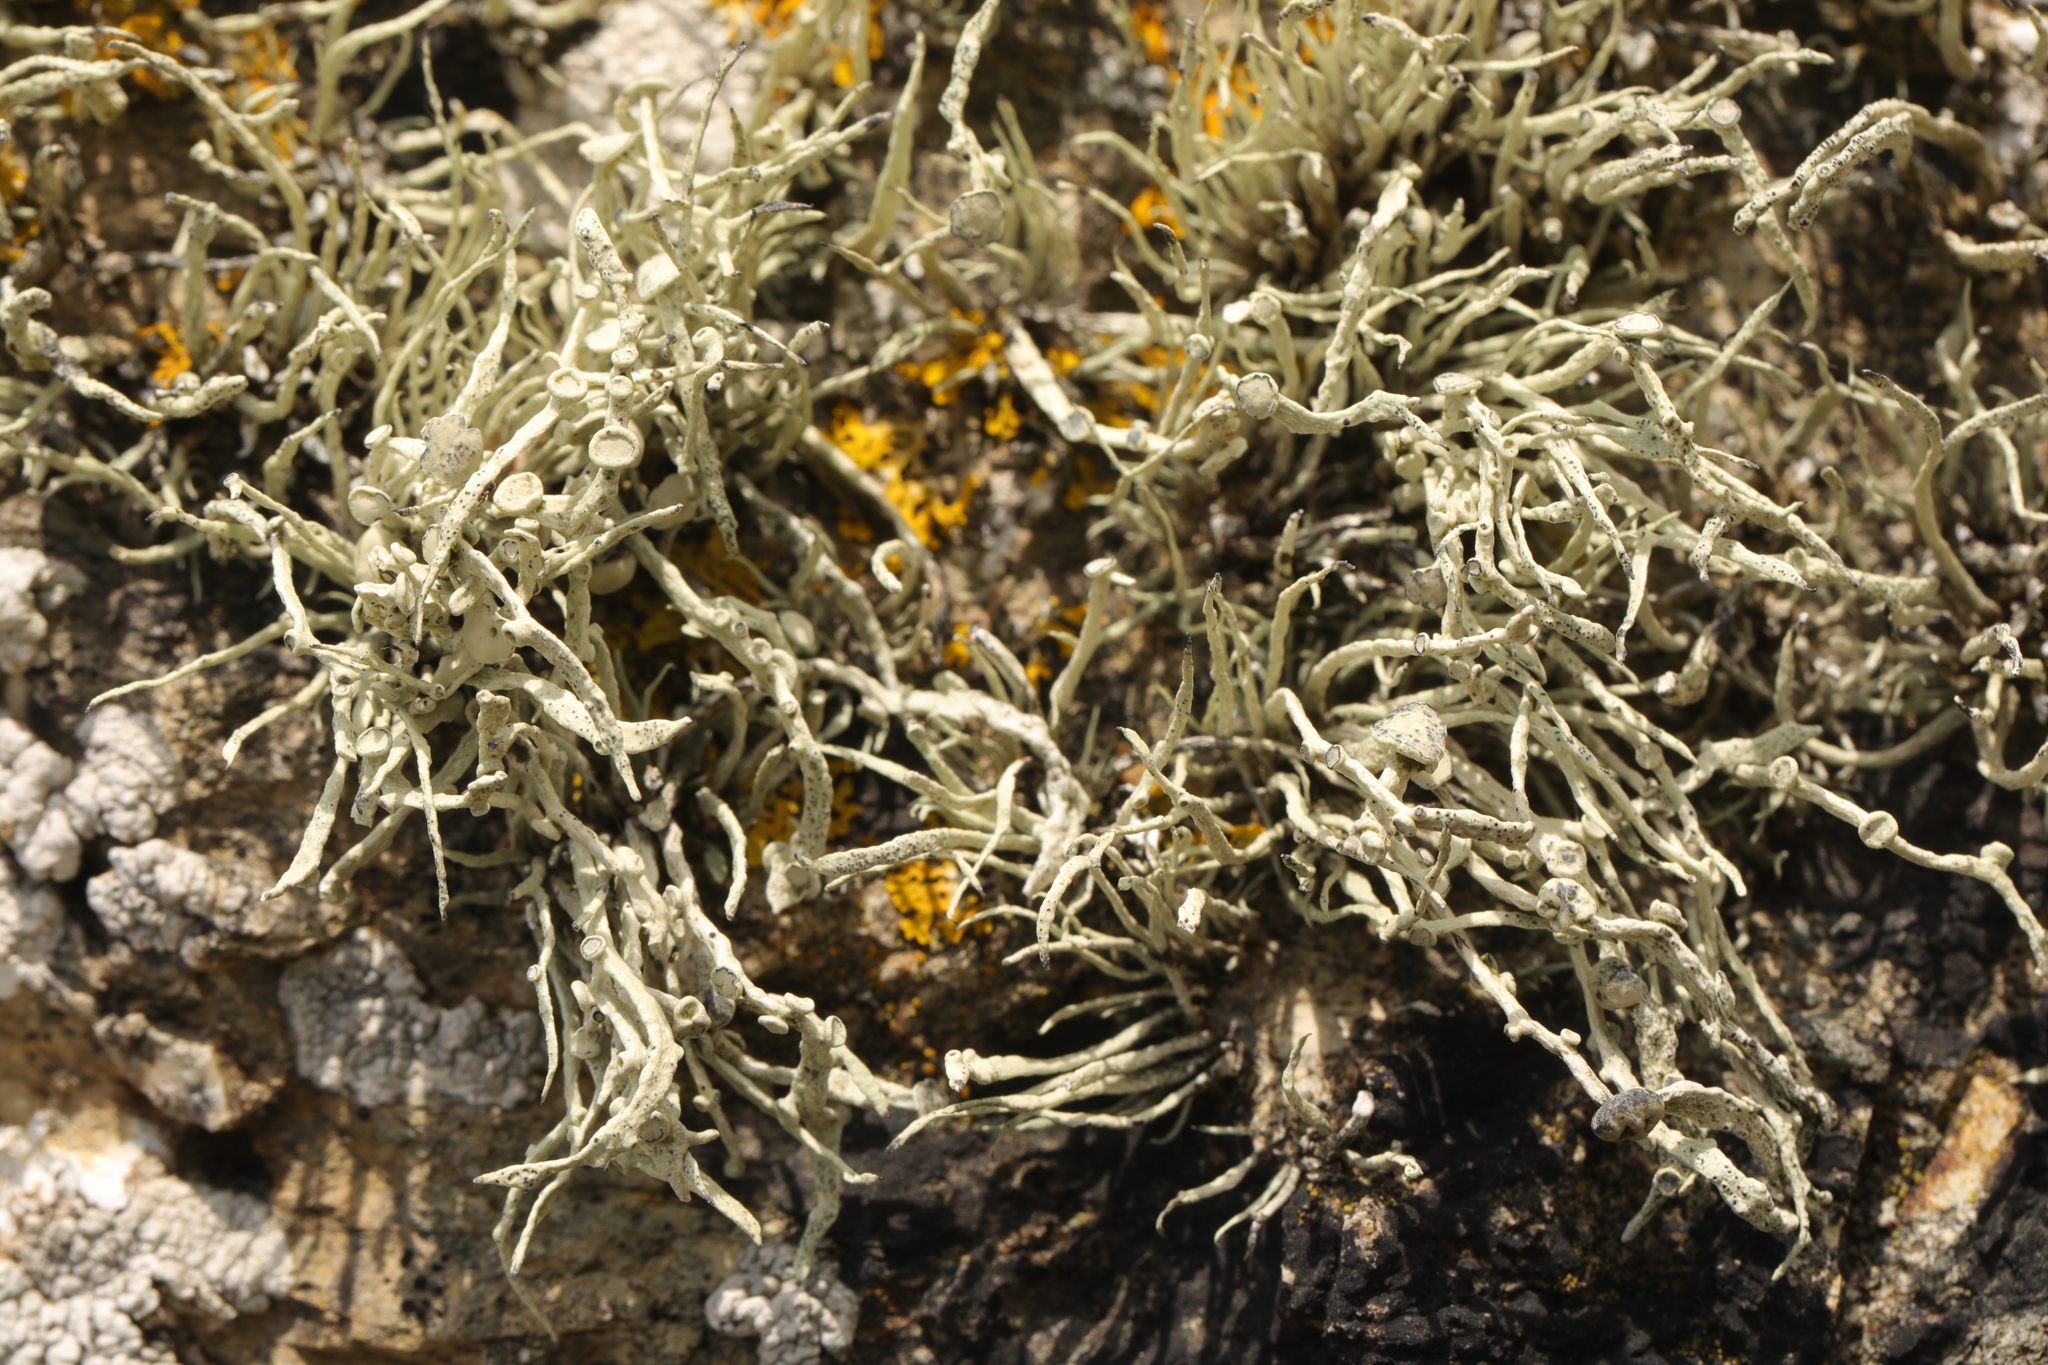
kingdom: Fungi
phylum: Ascomycota
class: Lecanoromycetes
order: Lecanorales
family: Ramalinaceae
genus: Ramalina
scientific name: Ramalina cuspidata
